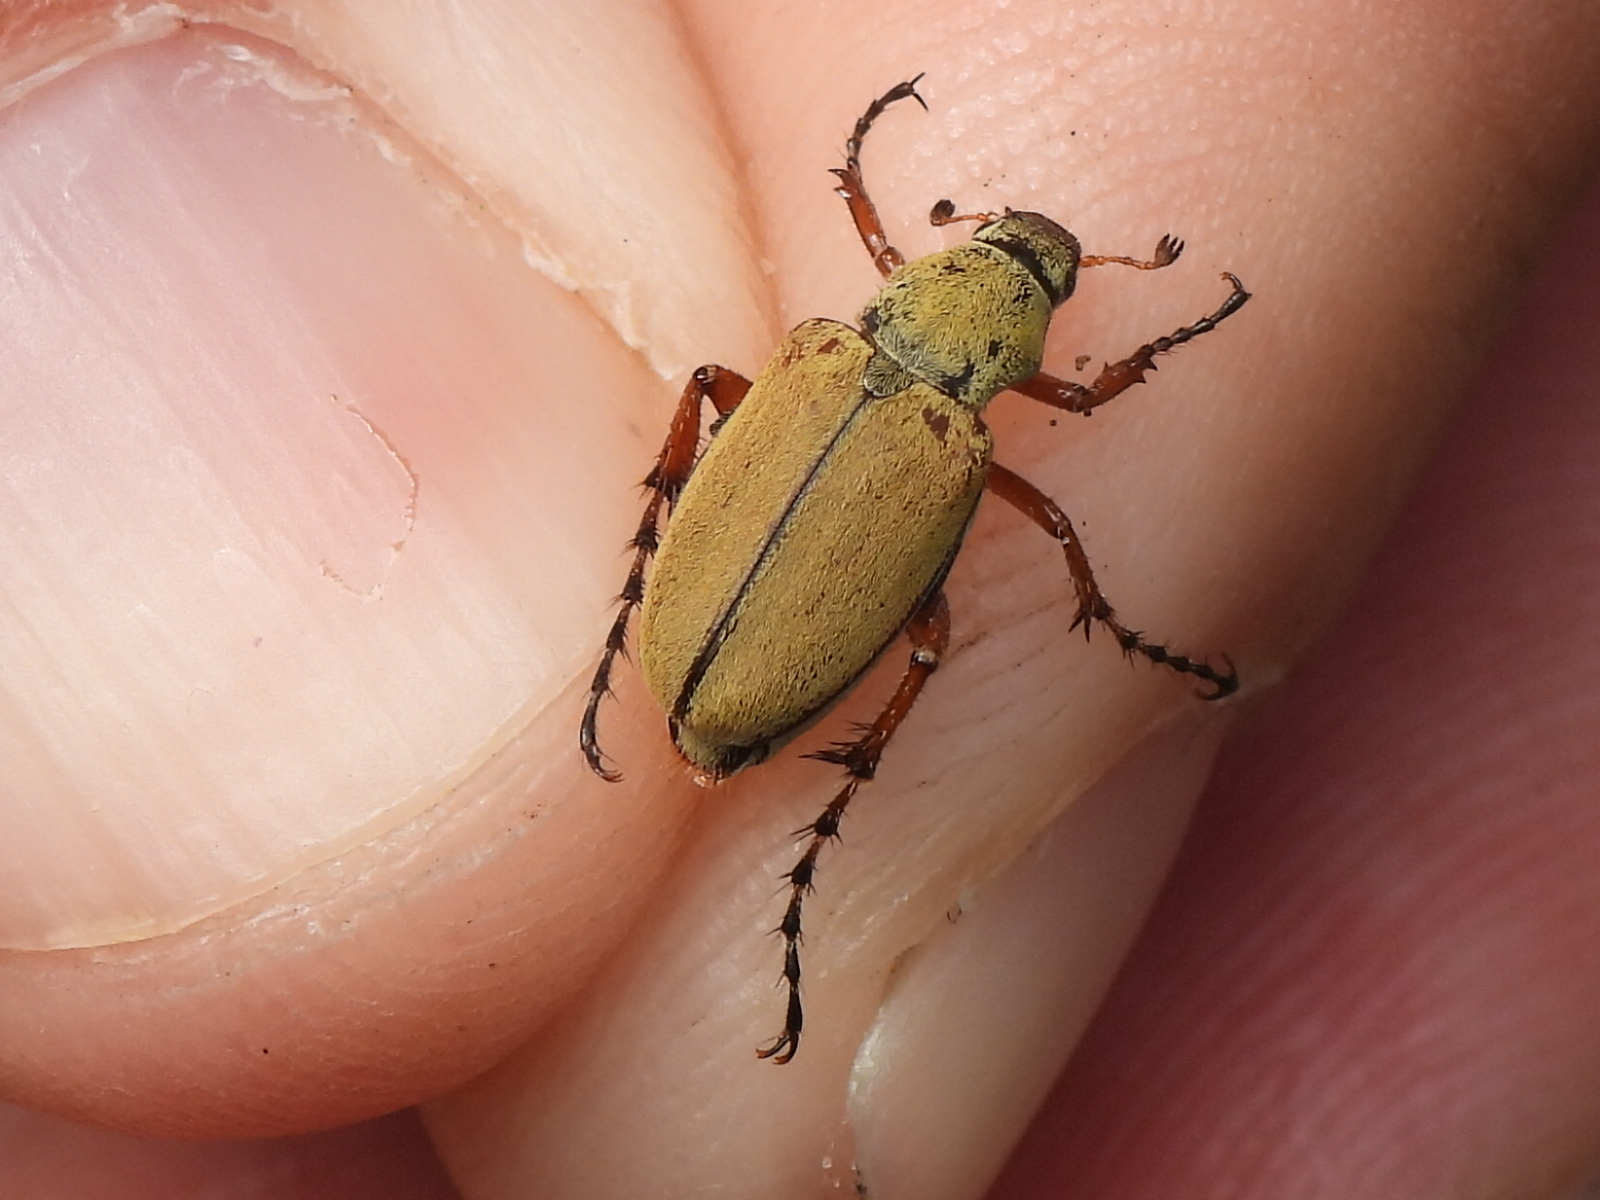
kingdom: Animalia
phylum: Arthropoda
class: Insecta
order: Coleoptera
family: Scarabaeidae
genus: Macrodactylus
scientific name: Macrodactylus subspinosus
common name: American rose chafer
